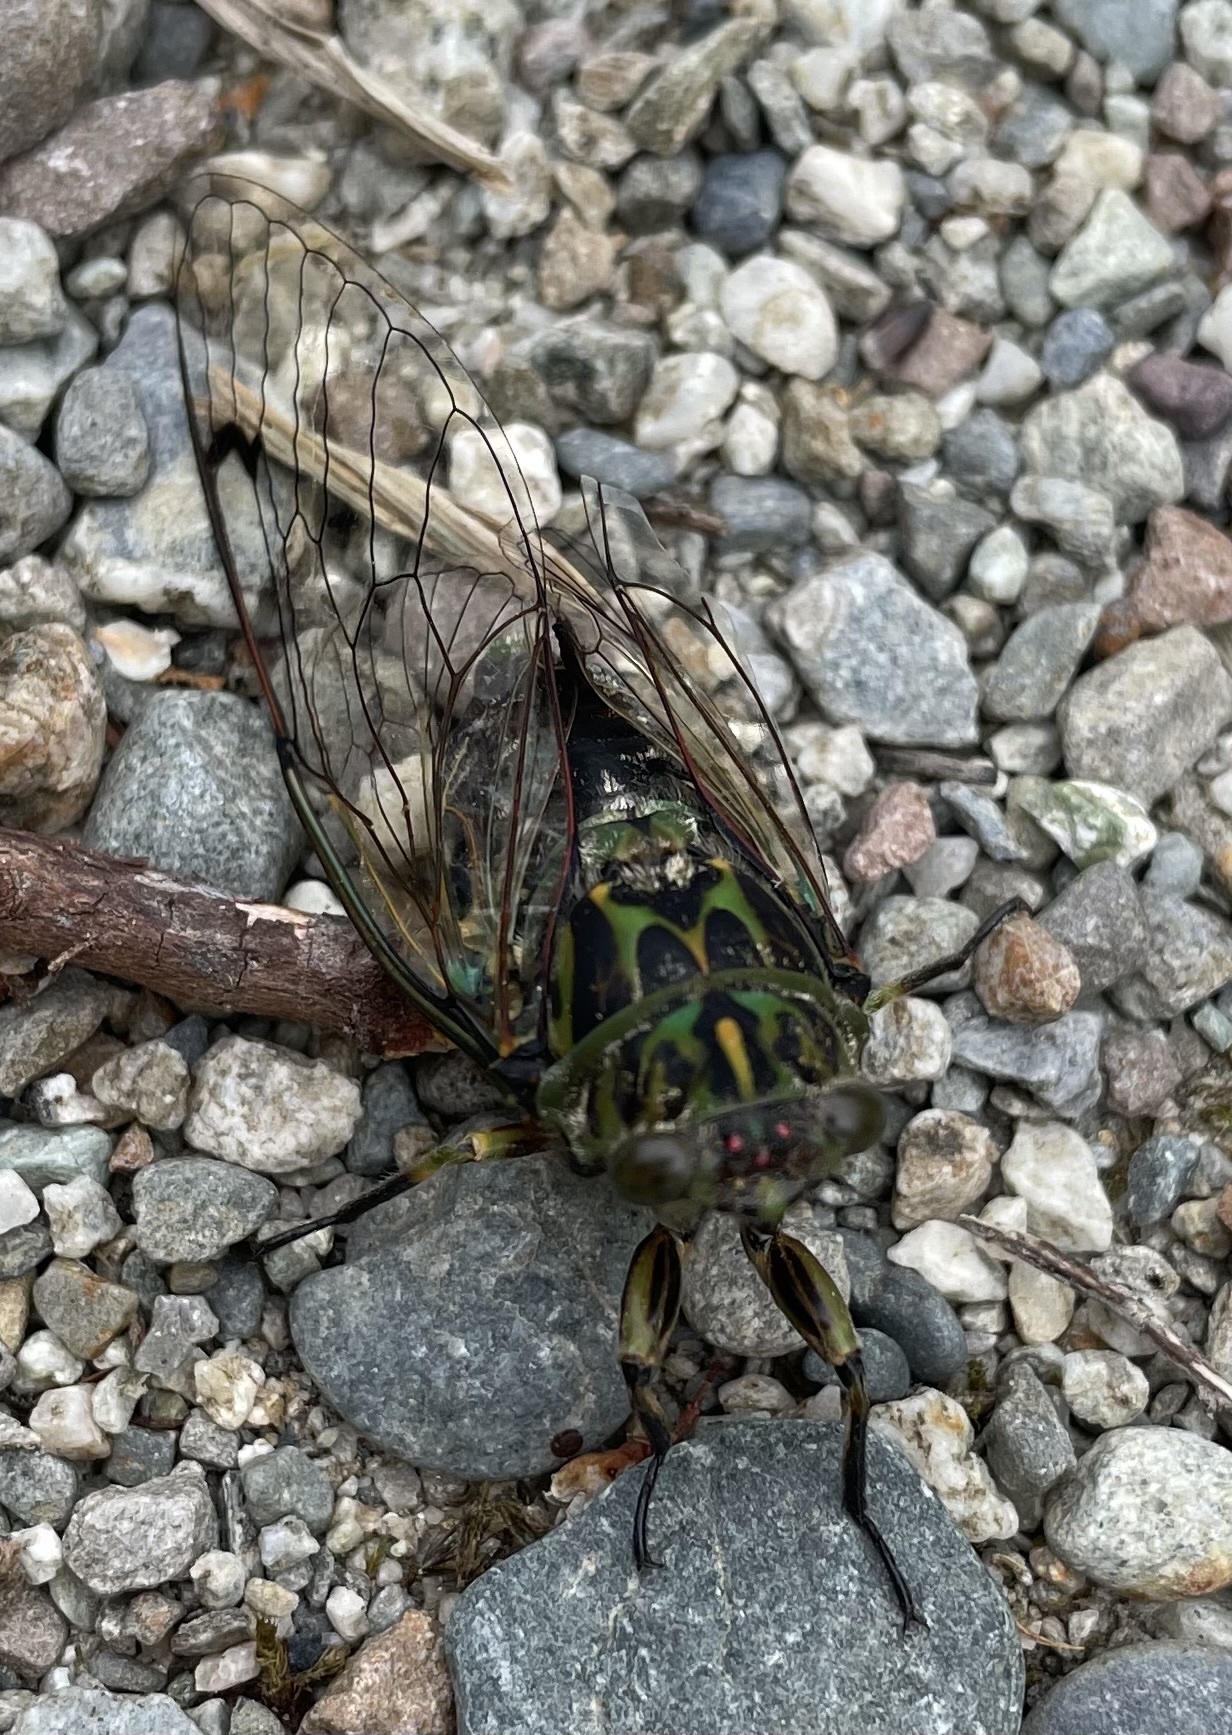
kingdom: Animalia
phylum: Arthropoda
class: Insecta
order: Hemiptera
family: Cicadidae
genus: Amphipsalta
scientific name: Amphipsalta zelandica
